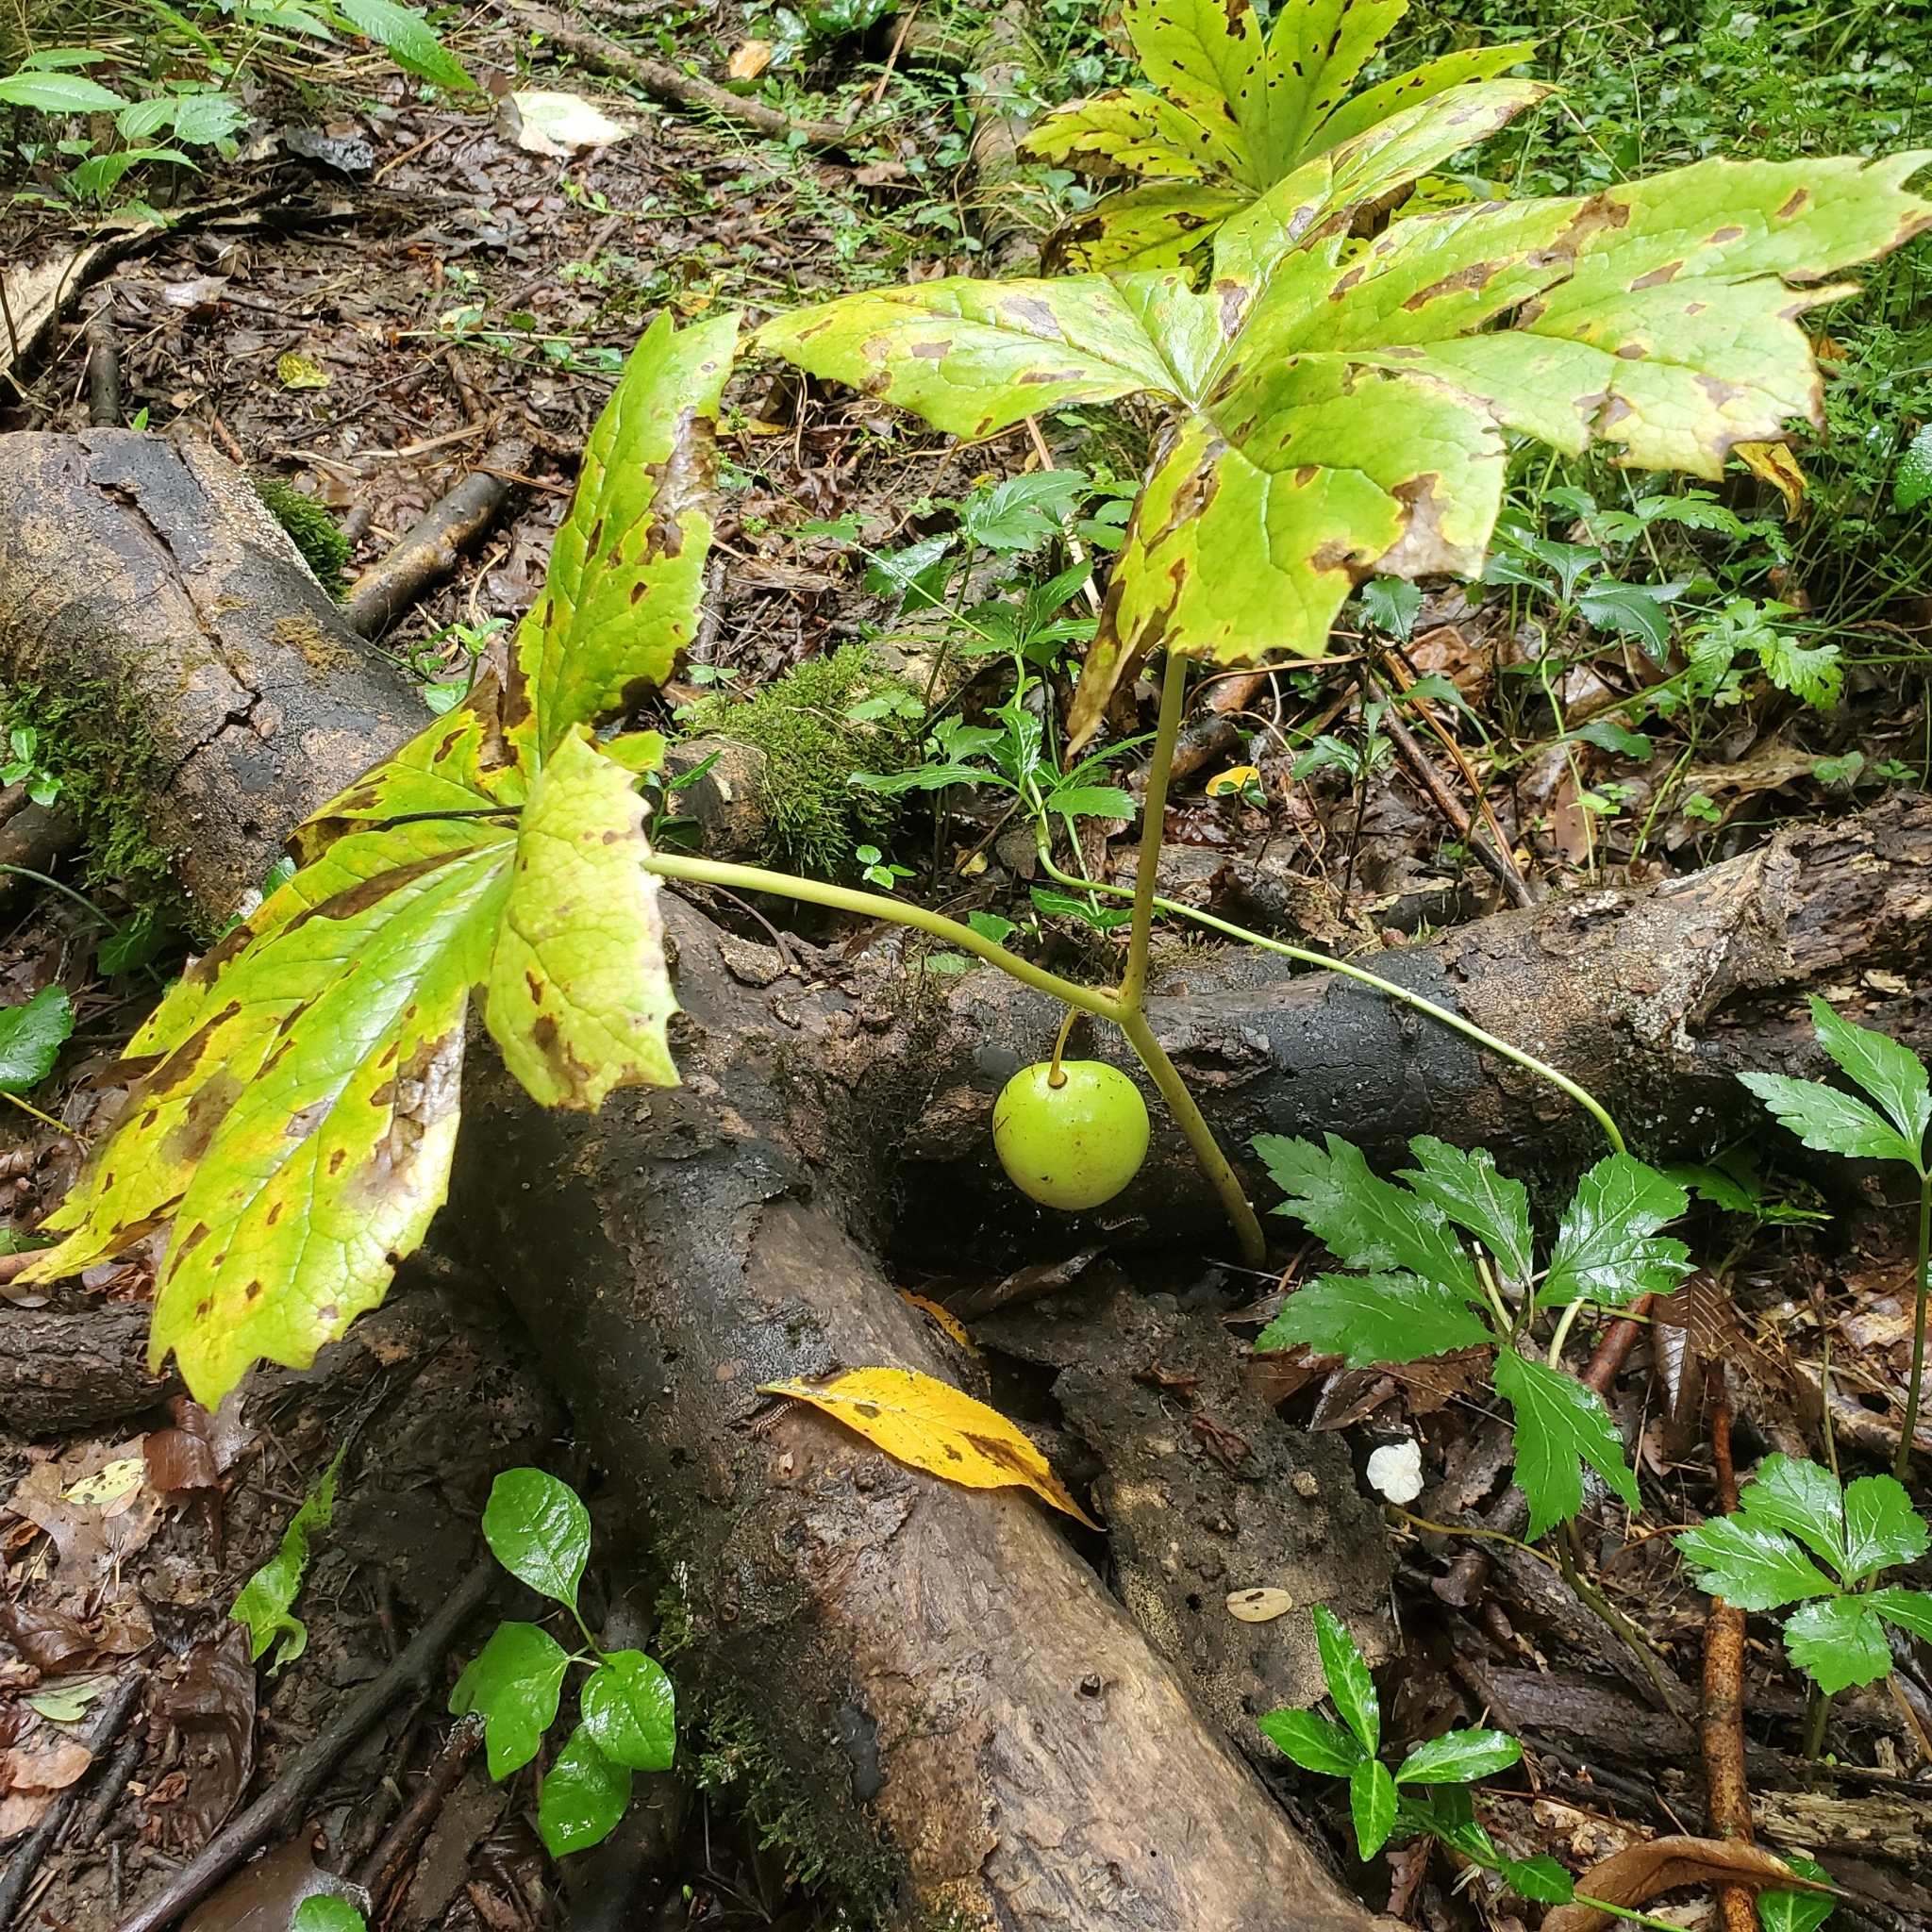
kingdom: Plantae
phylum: Tracheophyta
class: Magnoliopsida
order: Ranunculales
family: Berberidaceae
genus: Podophyllum
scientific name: Podophyllum peltatum
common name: Wild mandrake
